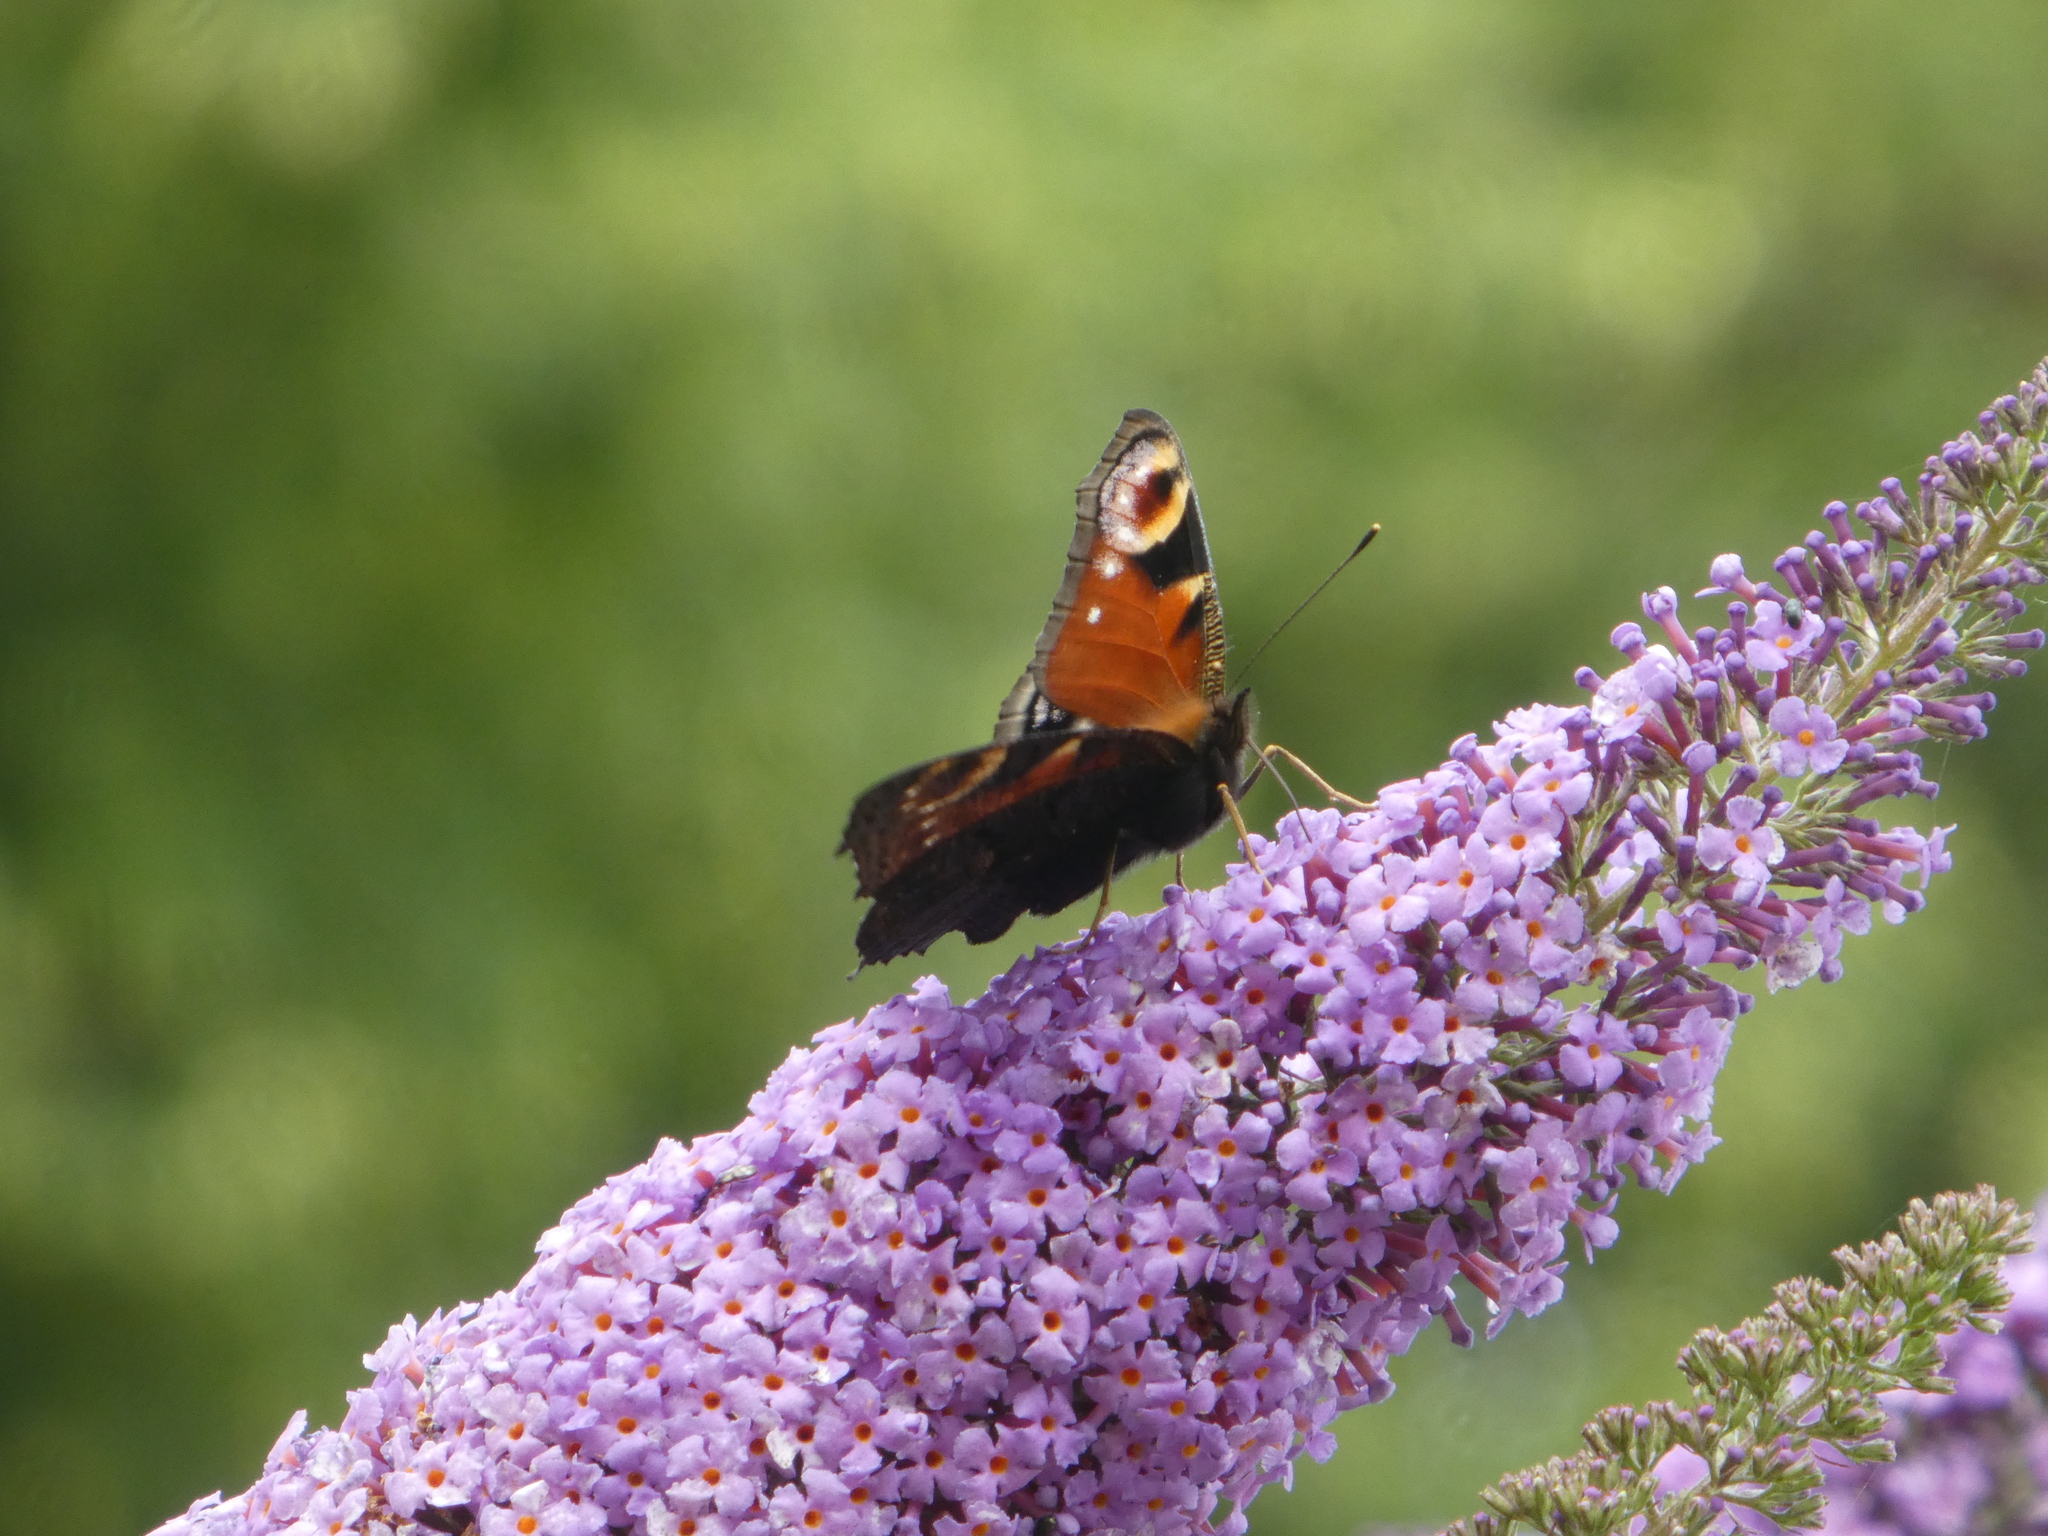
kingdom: Animalia
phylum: Arthropoda
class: Insecta
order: Lepidoptera
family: Nymphalidae
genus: Aglais
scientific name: Aglais io
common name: Peacock
